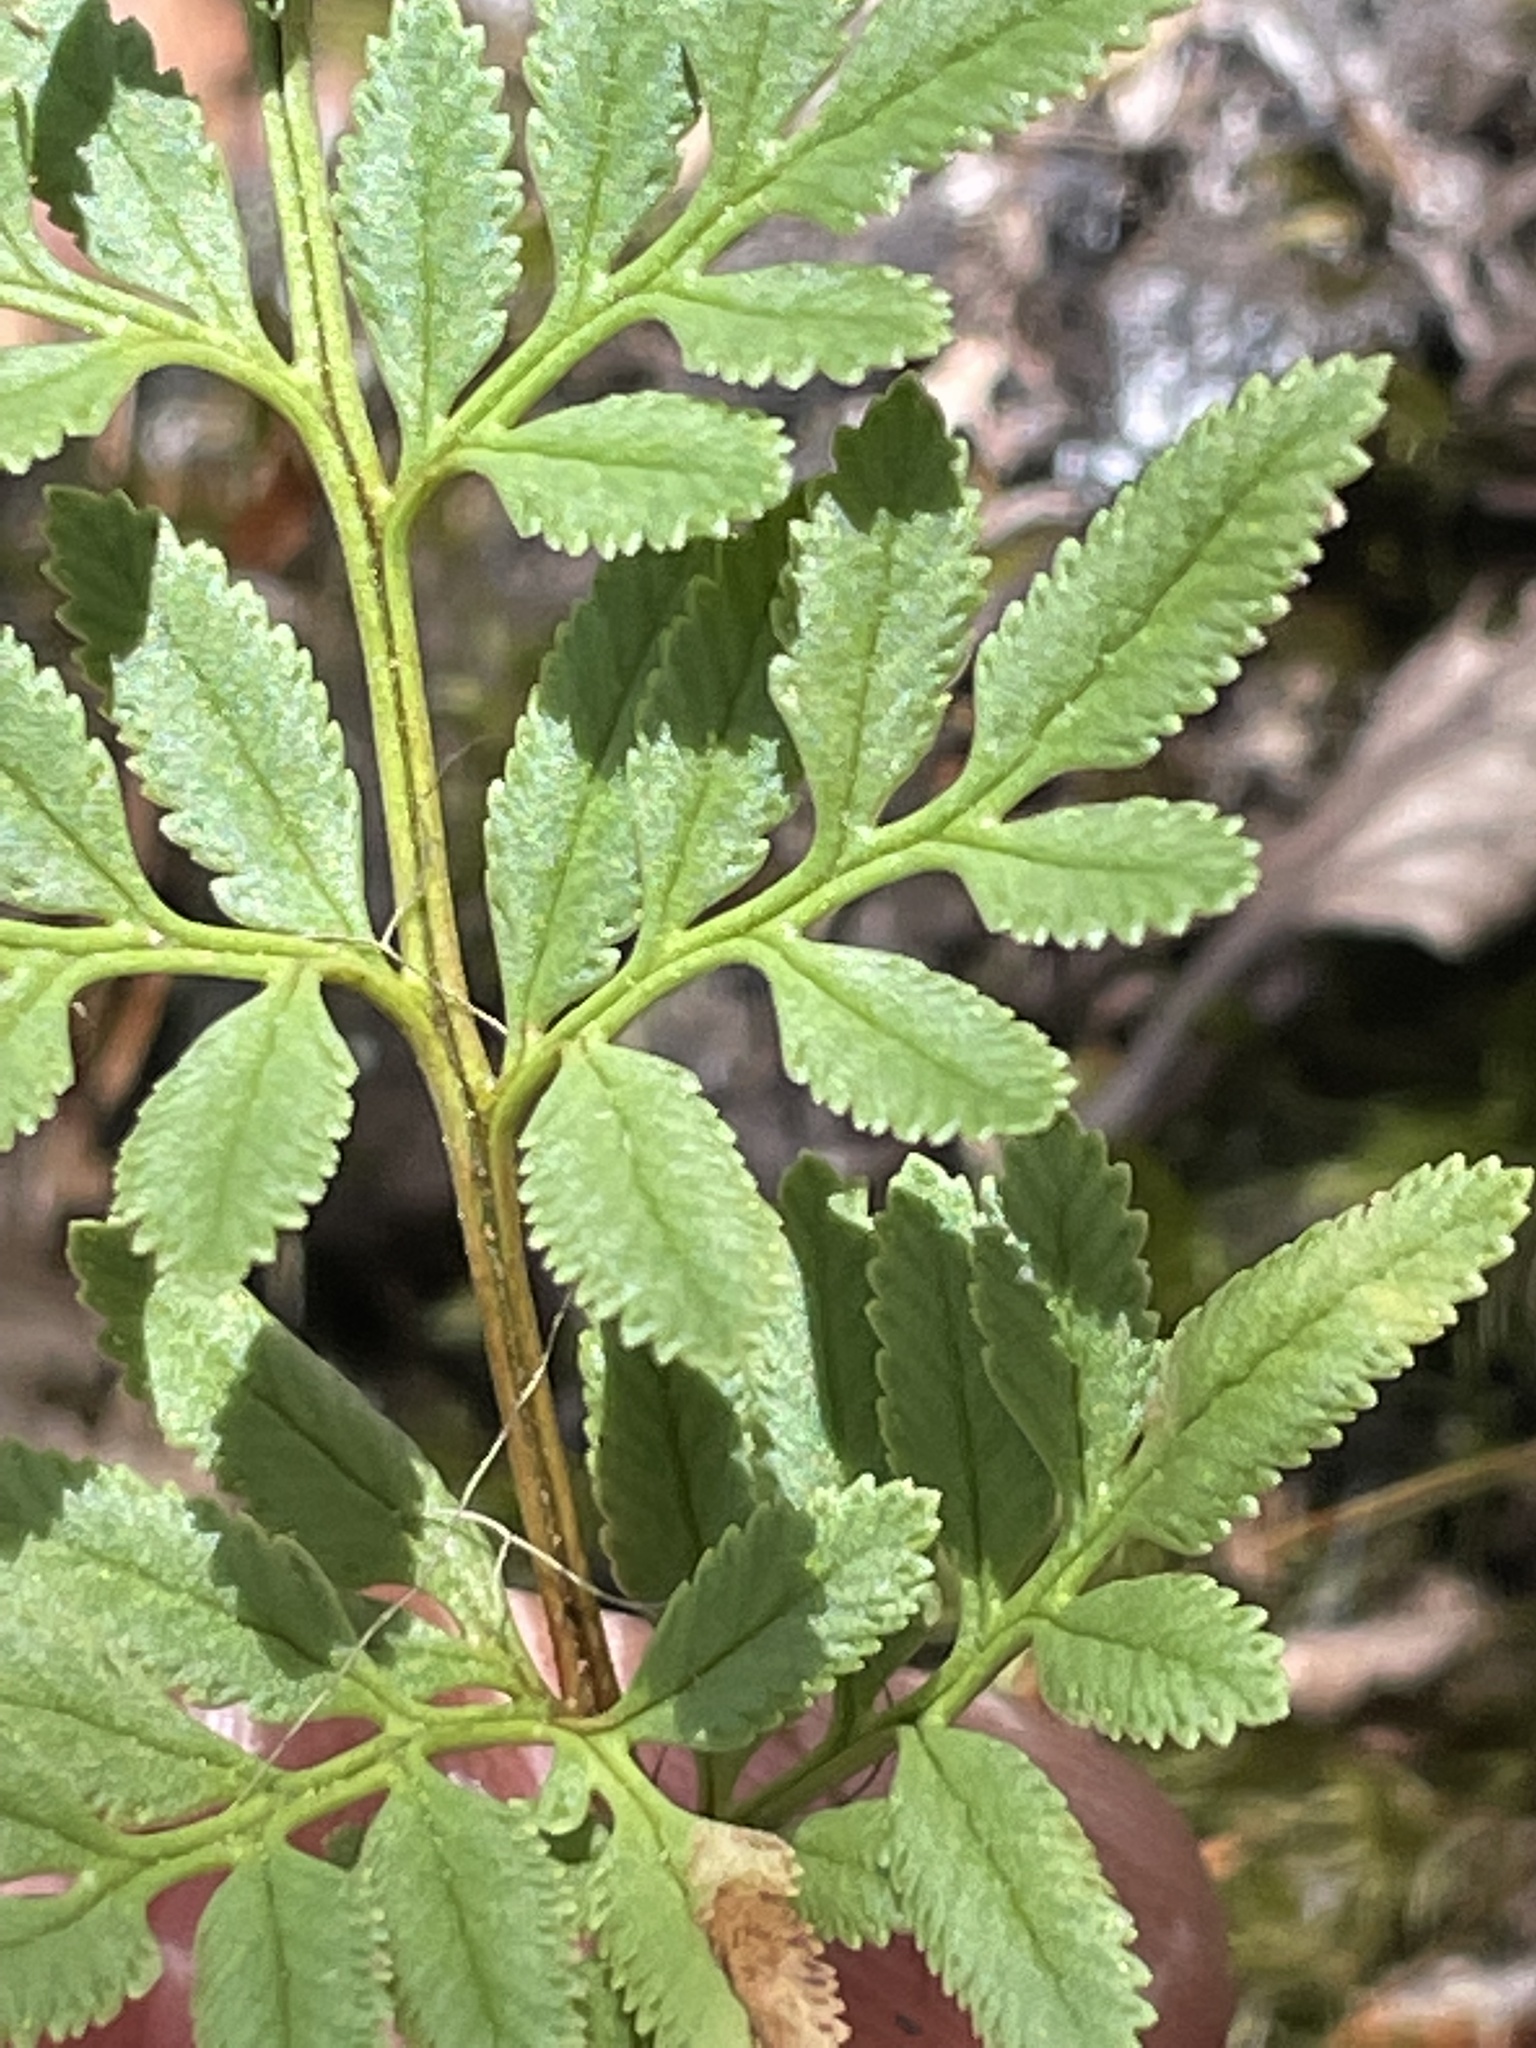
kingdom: Plantae
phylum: Tracheophyta
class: Polypodiopsida
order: Polypodiales
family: Pteridaceae
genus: Cryptogramma
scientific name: Cryptogramma acrostichoides
